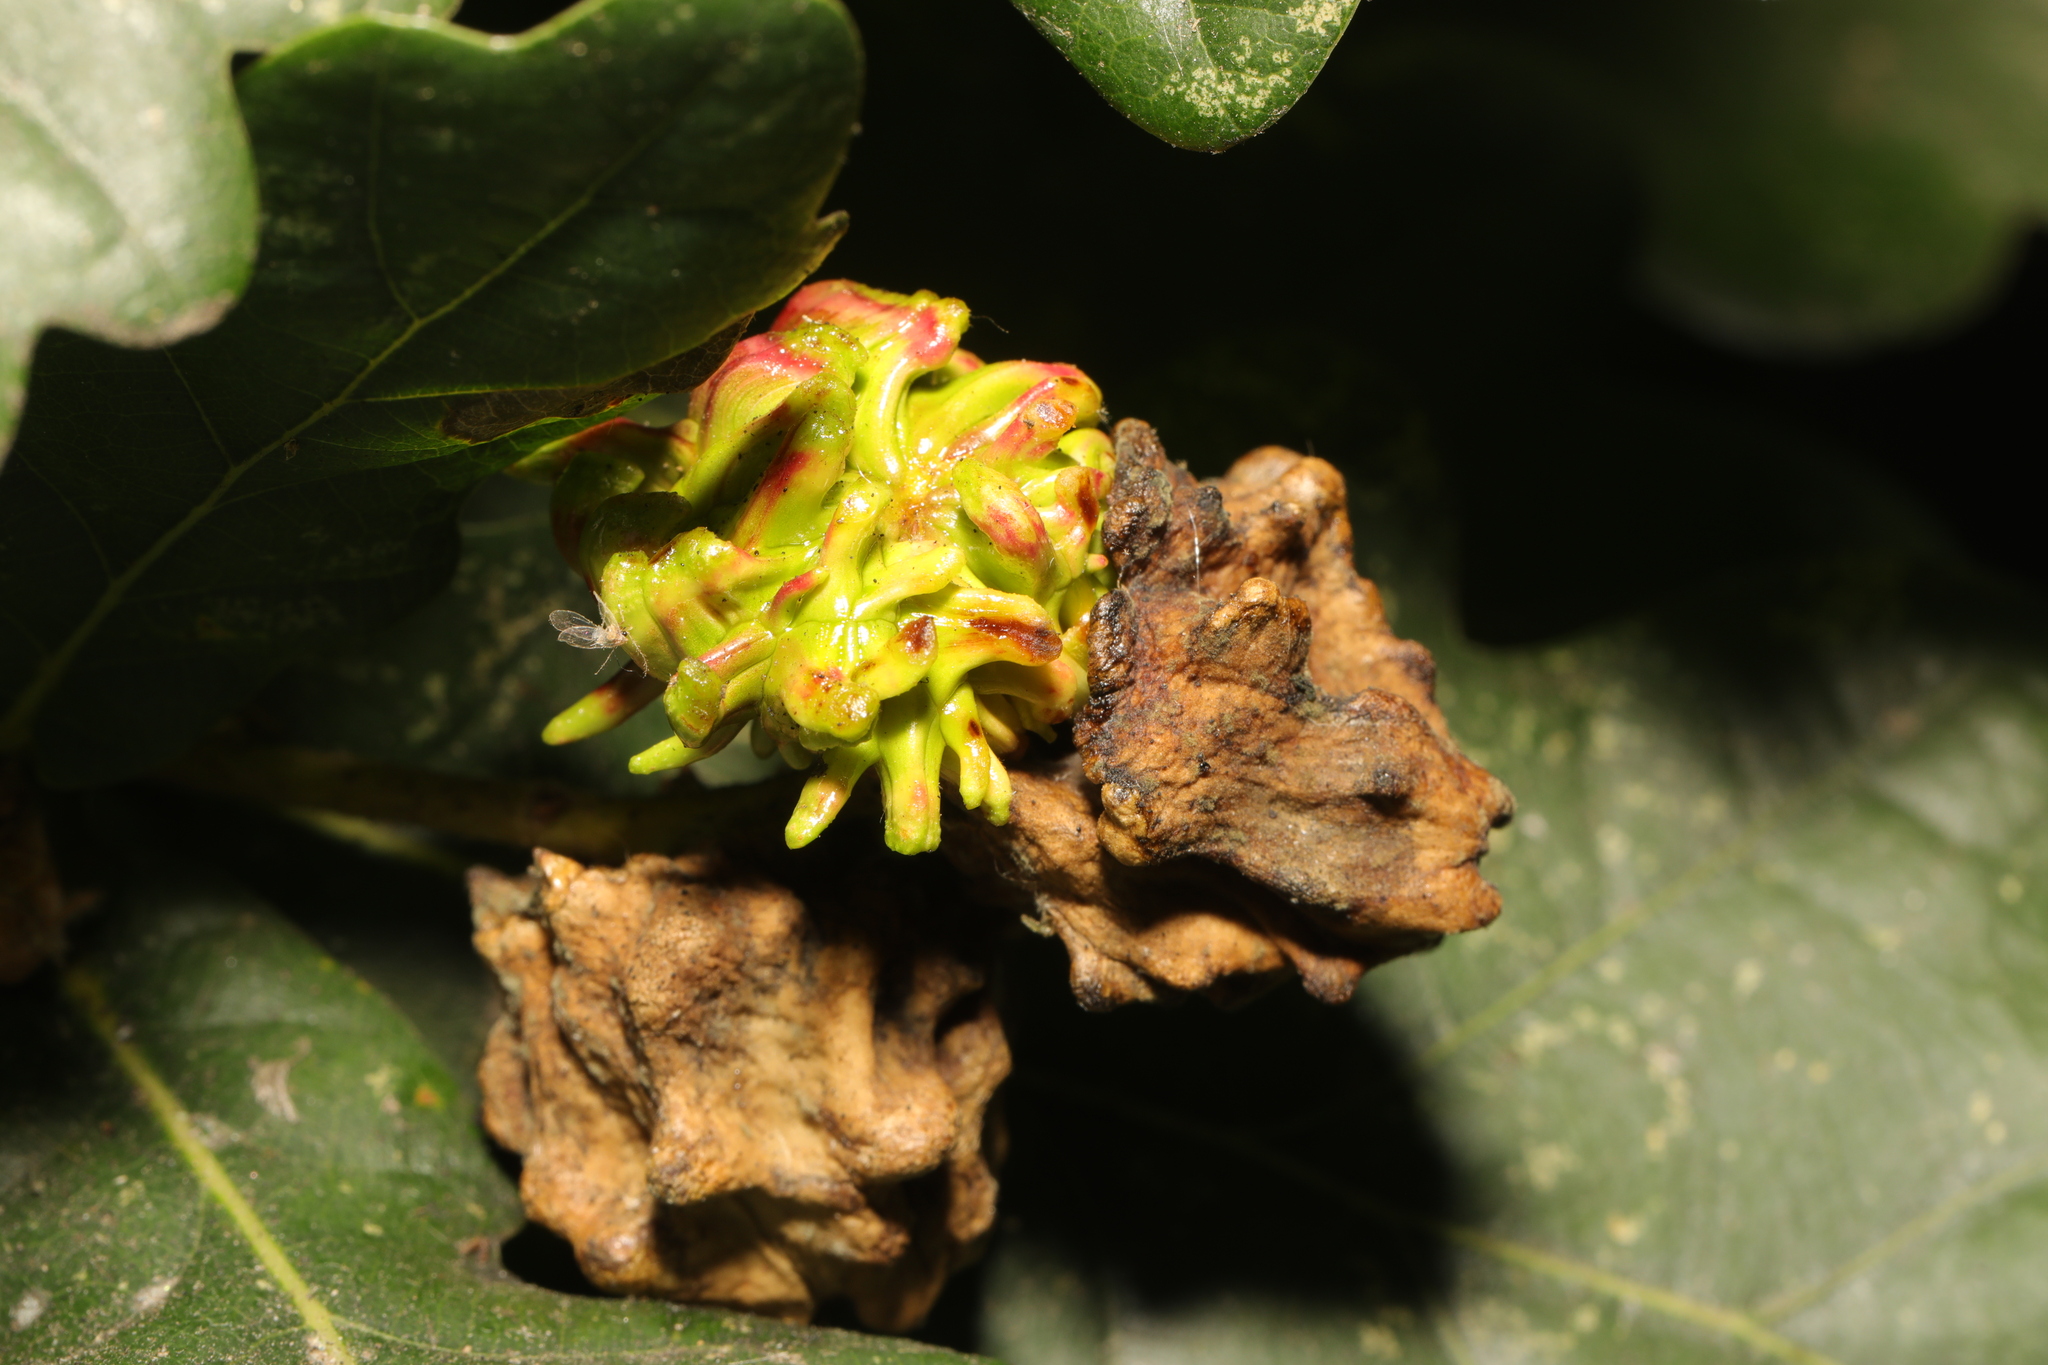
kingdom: Animalia
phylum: Arthropoda
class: Insecta
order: Hymenoptera
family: Cynipidae
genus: Andricus
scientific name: Andricus grossulariae
